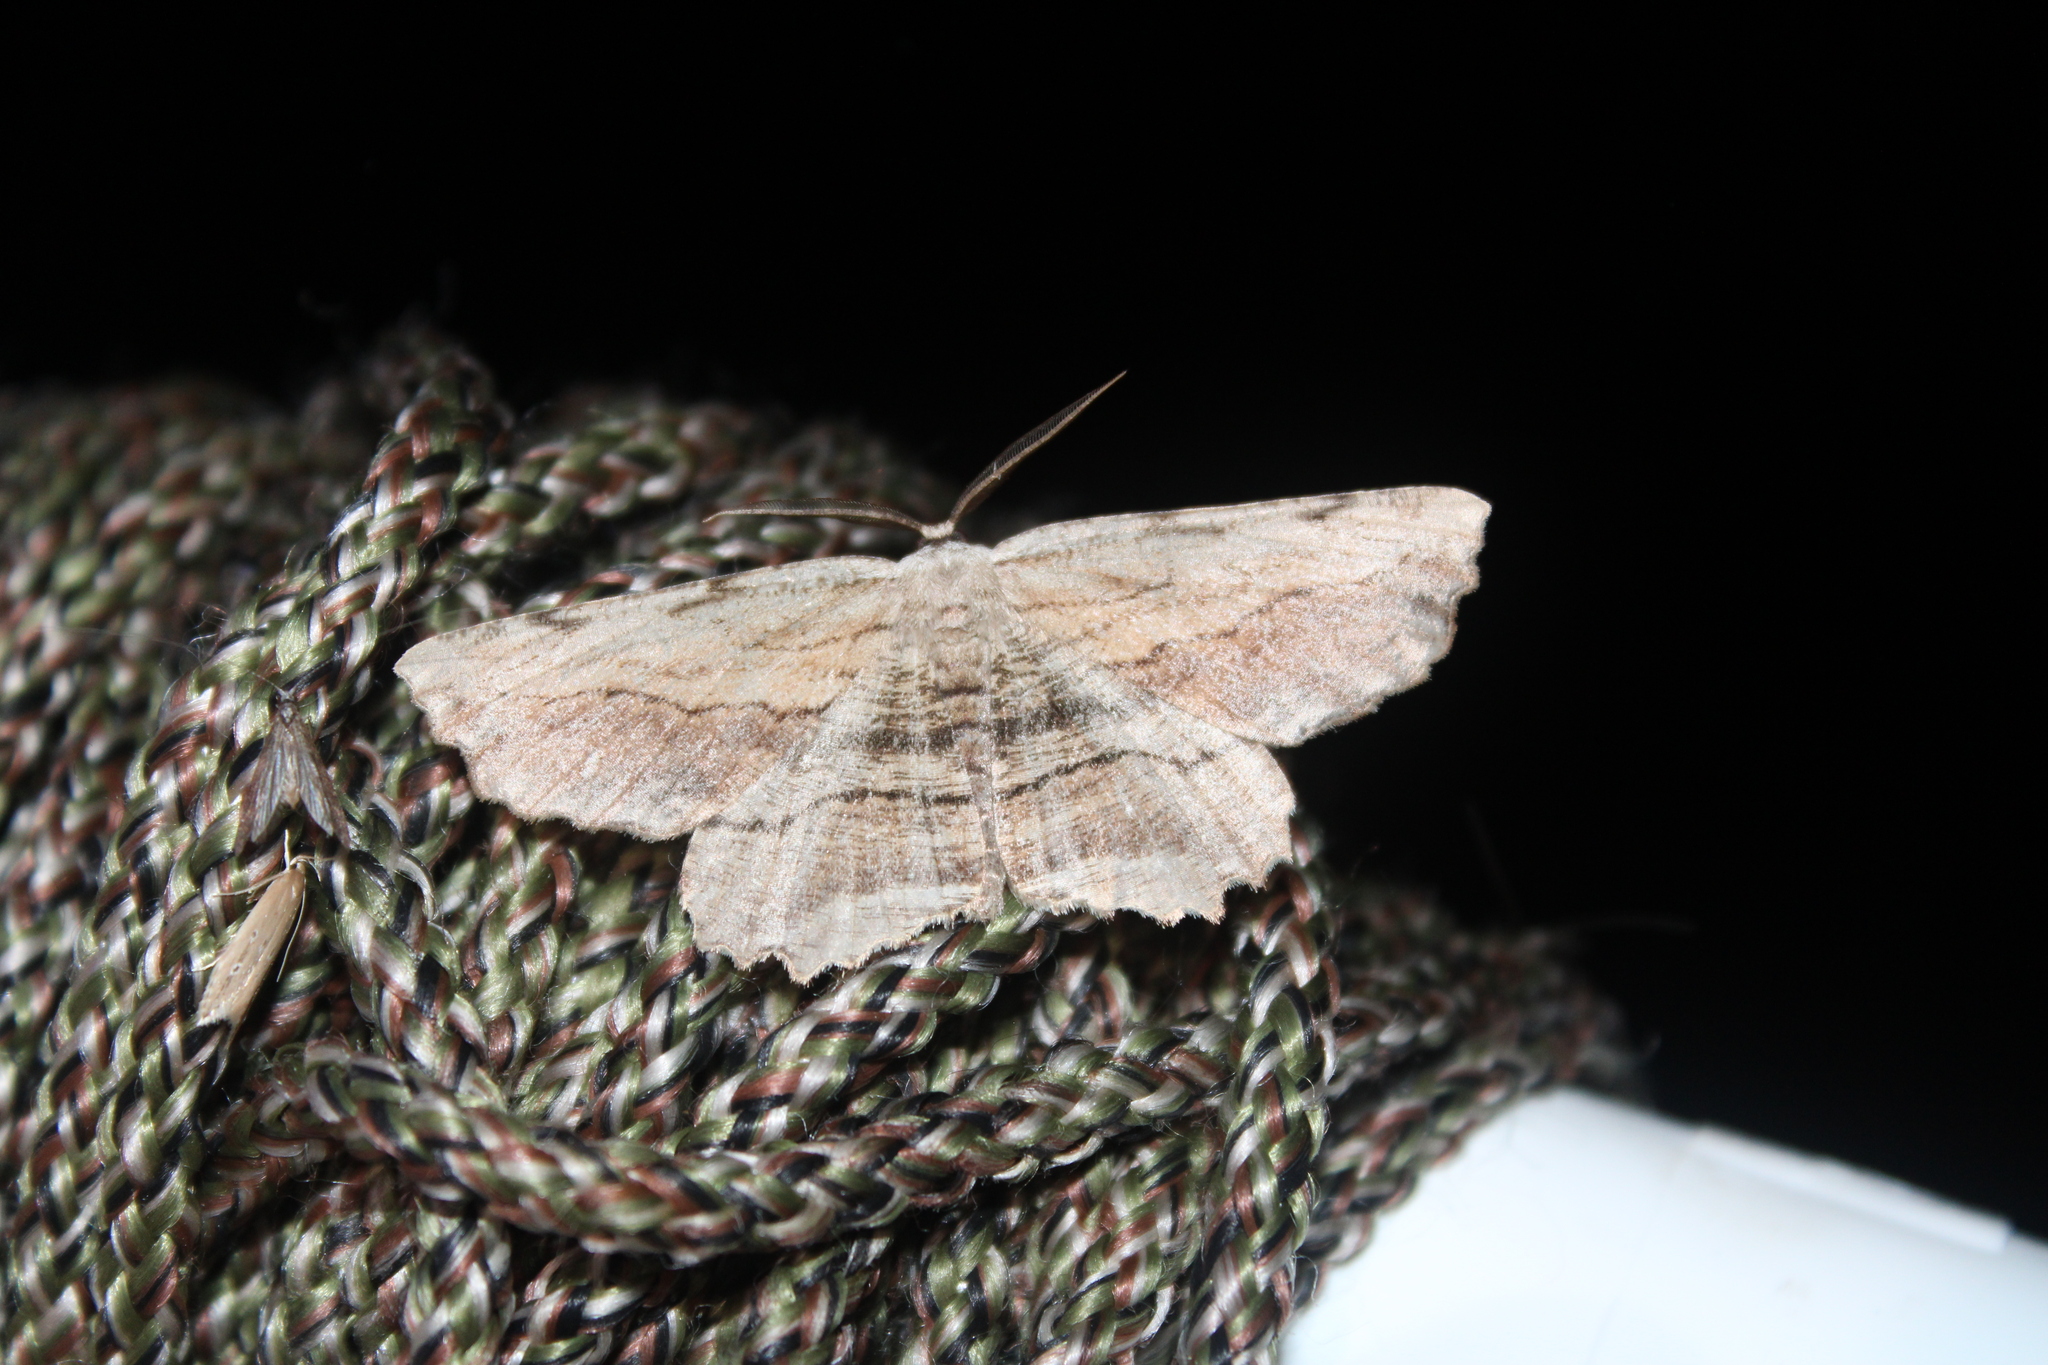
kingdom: Animalia
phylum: Arthropoda
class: Insecta
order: Lepidoptera
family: Geometridae
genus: Lytrosis
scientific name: Lytrosis unitaria
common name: Common lytrosis
